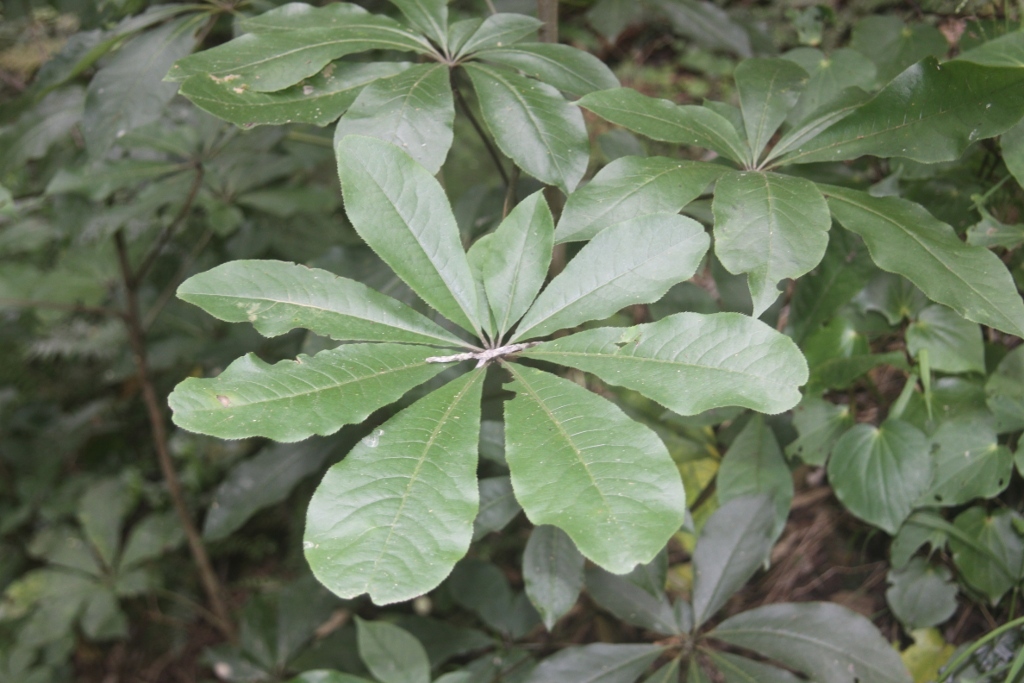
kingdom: Plantae
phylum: Tracheophyta
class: Magnoliopsida
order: Apiales
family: Araliaceae
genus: Schefflera
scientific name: Schefflera digitata
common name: Pate
